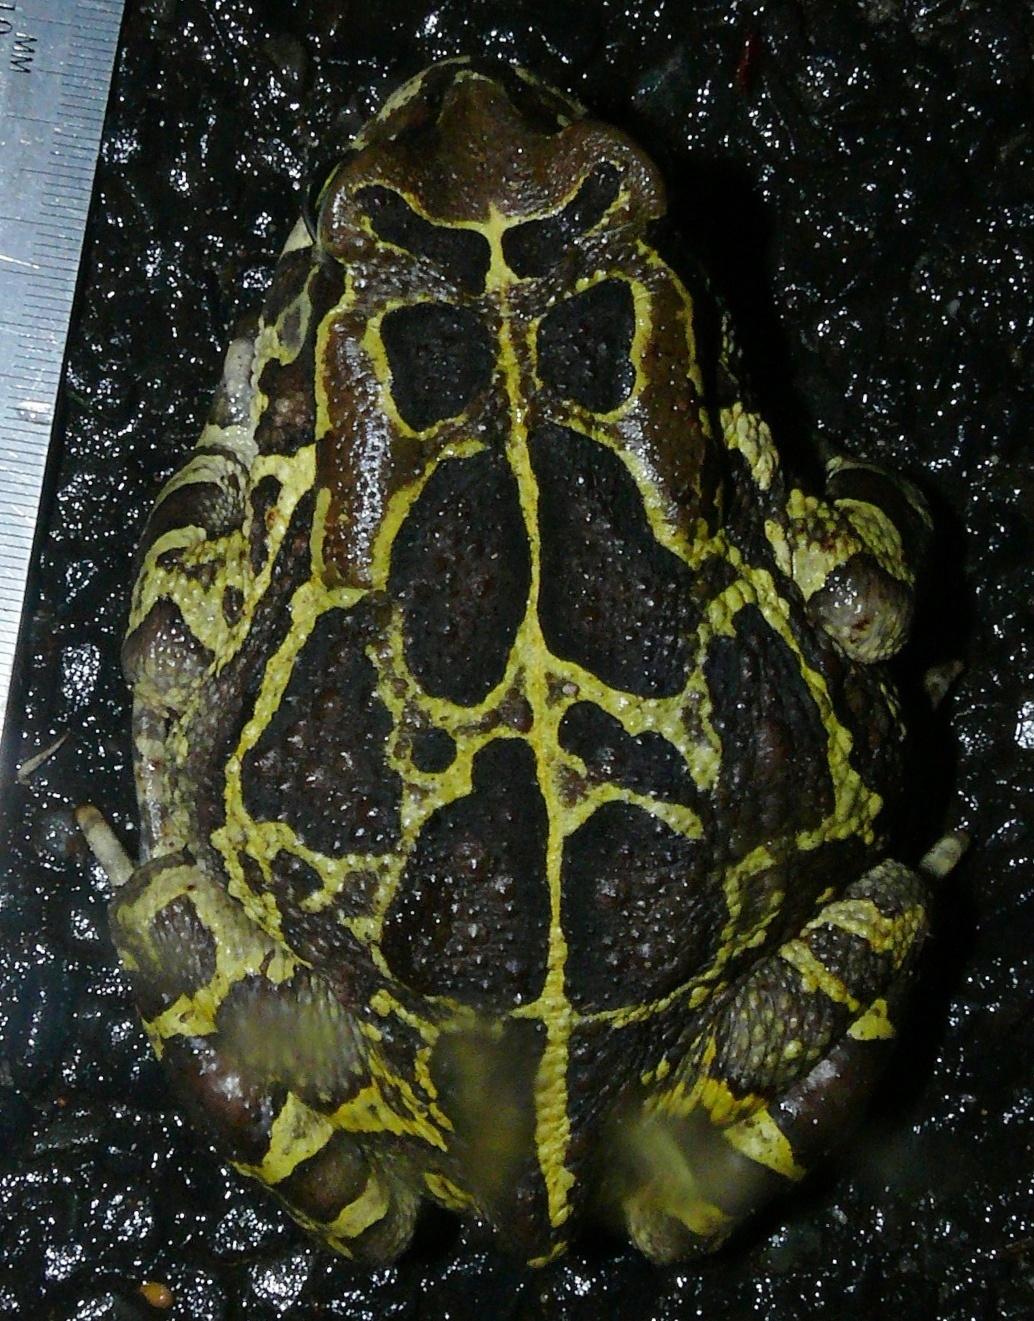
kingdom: Animalia
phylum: Chordata
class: Amphibia
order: Anura
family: Bufonidae
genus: Sclerophrys
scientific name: Sclerophrys pantherina
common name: Panther toad
